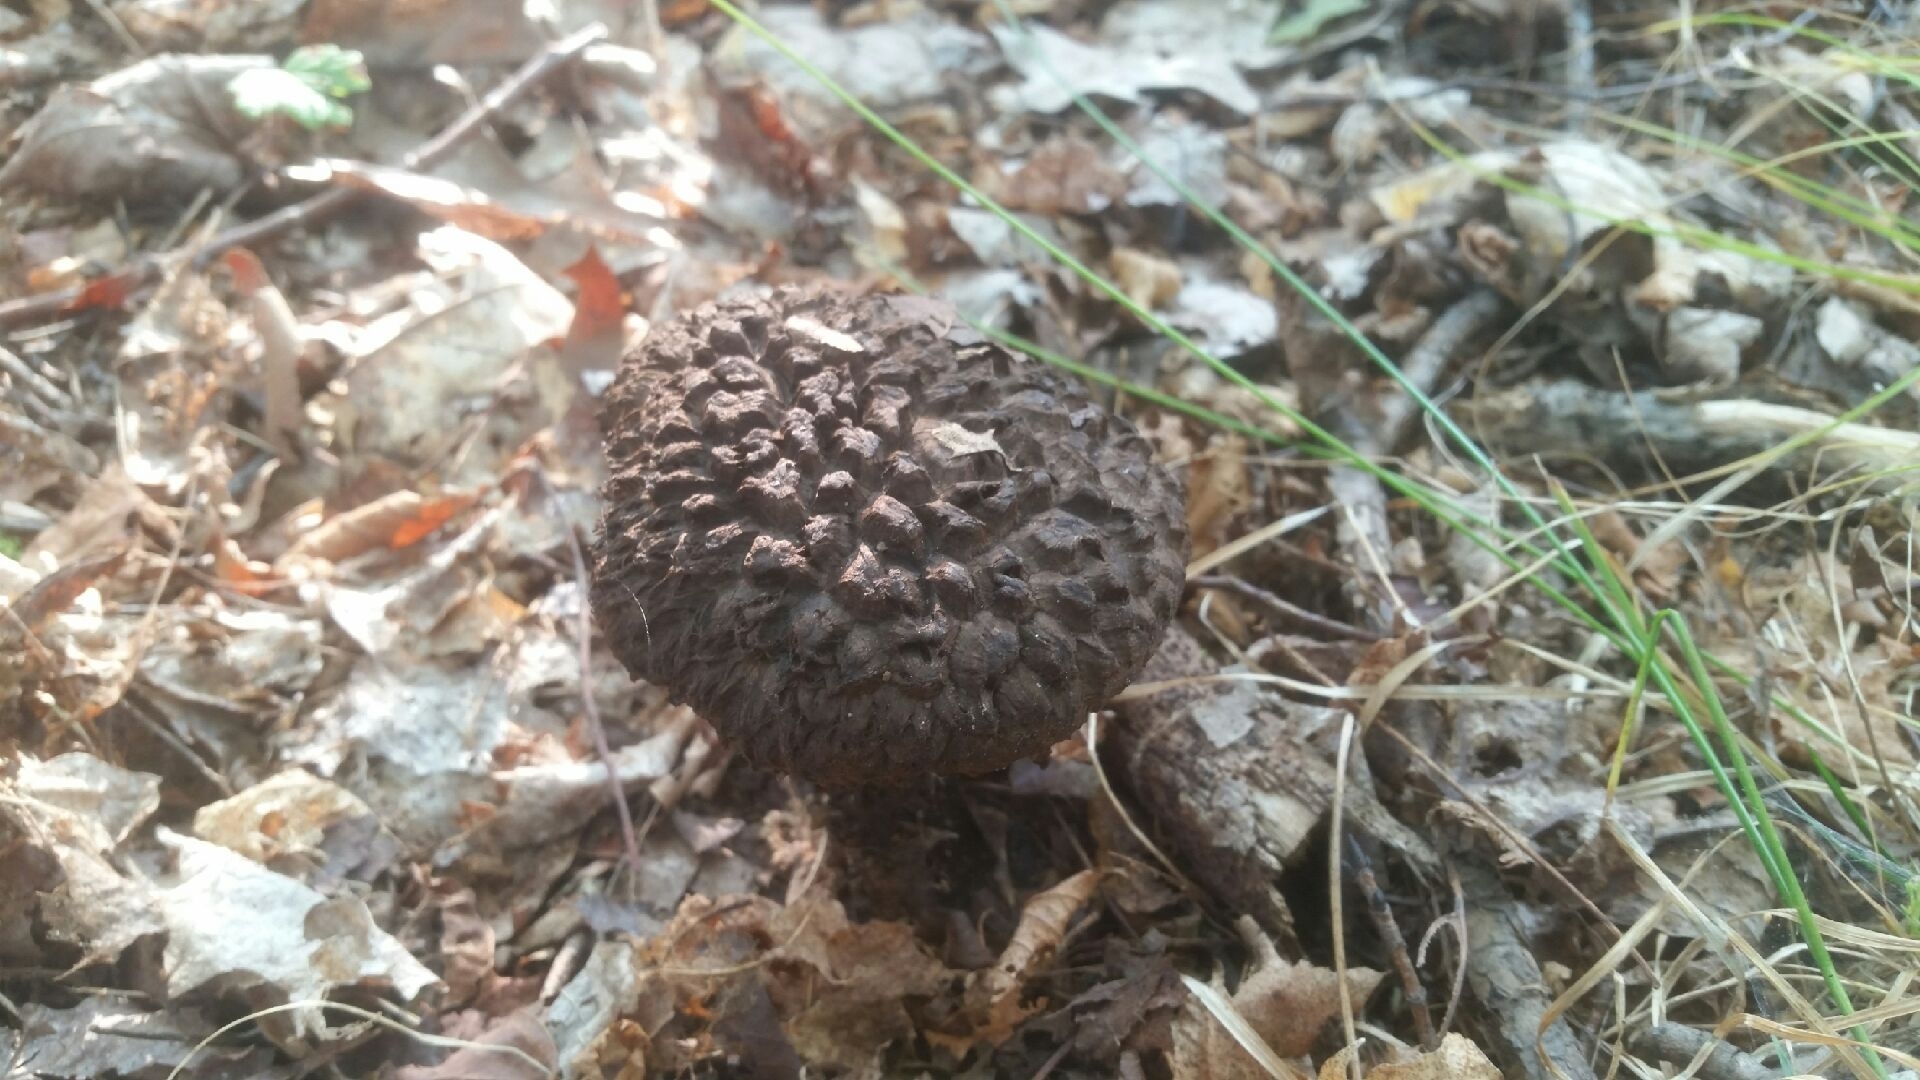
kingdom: Fungi
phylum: Basidiomycota
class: Agaricomycetes
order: Boletales
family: Boletaceae
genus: Strobilomyces
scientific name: Strobilomyces strobilaceus
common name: Old man of the woods
